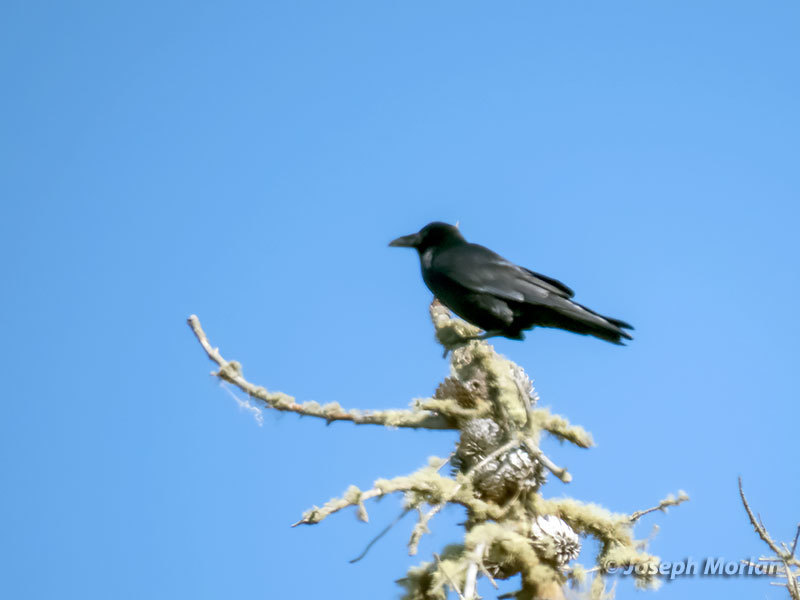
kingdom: Animalia
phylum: Chordata
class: Aves
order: Passeriformes
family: Corvidae
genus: Corvus
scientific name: Corvus brachyrhynchos
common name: American crow
